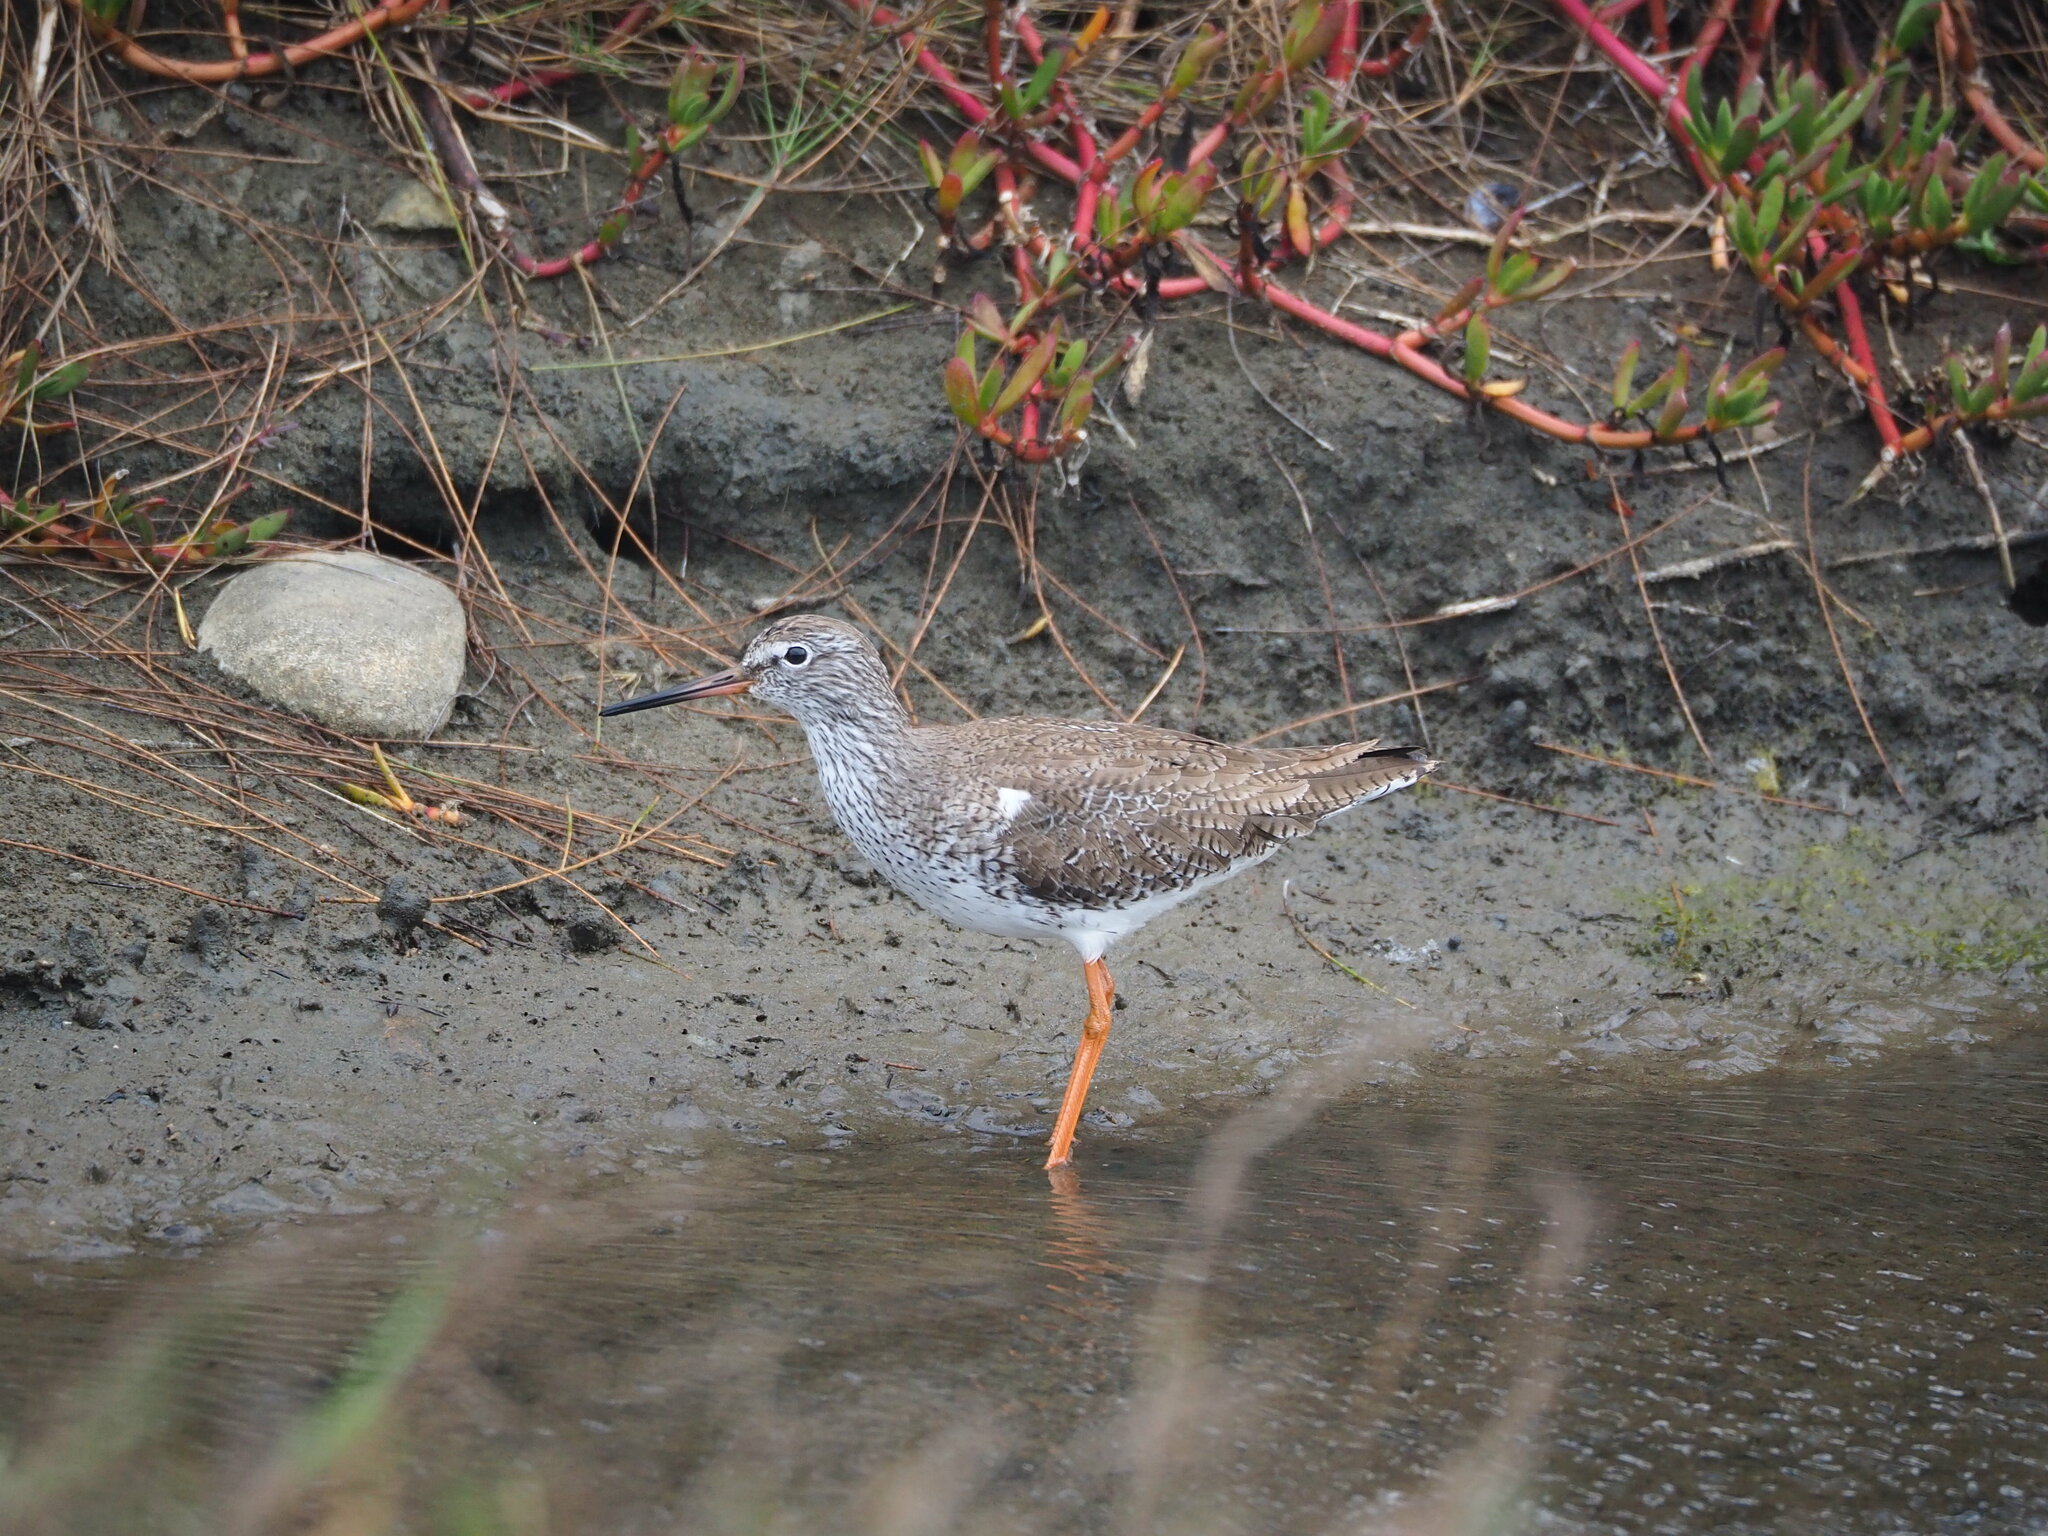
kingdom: Animalia
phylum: Chordata
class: Aves
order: Charadriiformes
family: Scolopacidae
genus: Tringa
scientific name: Tringa totanus
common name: Common redshank
